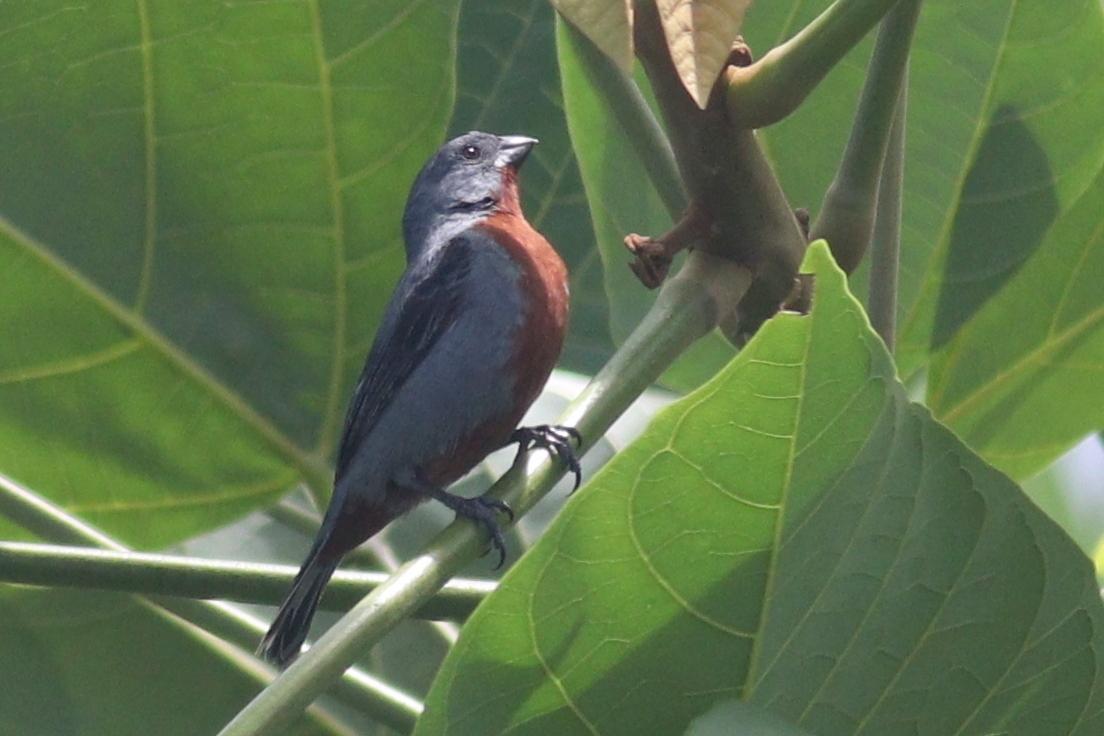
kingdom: Animalia
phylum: Chordata
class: Aves
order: Passeriformes
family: Thraupidae
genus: Sporophila
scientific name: Sporophila castaneiventris
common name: Chestnut-bellied seedeater
